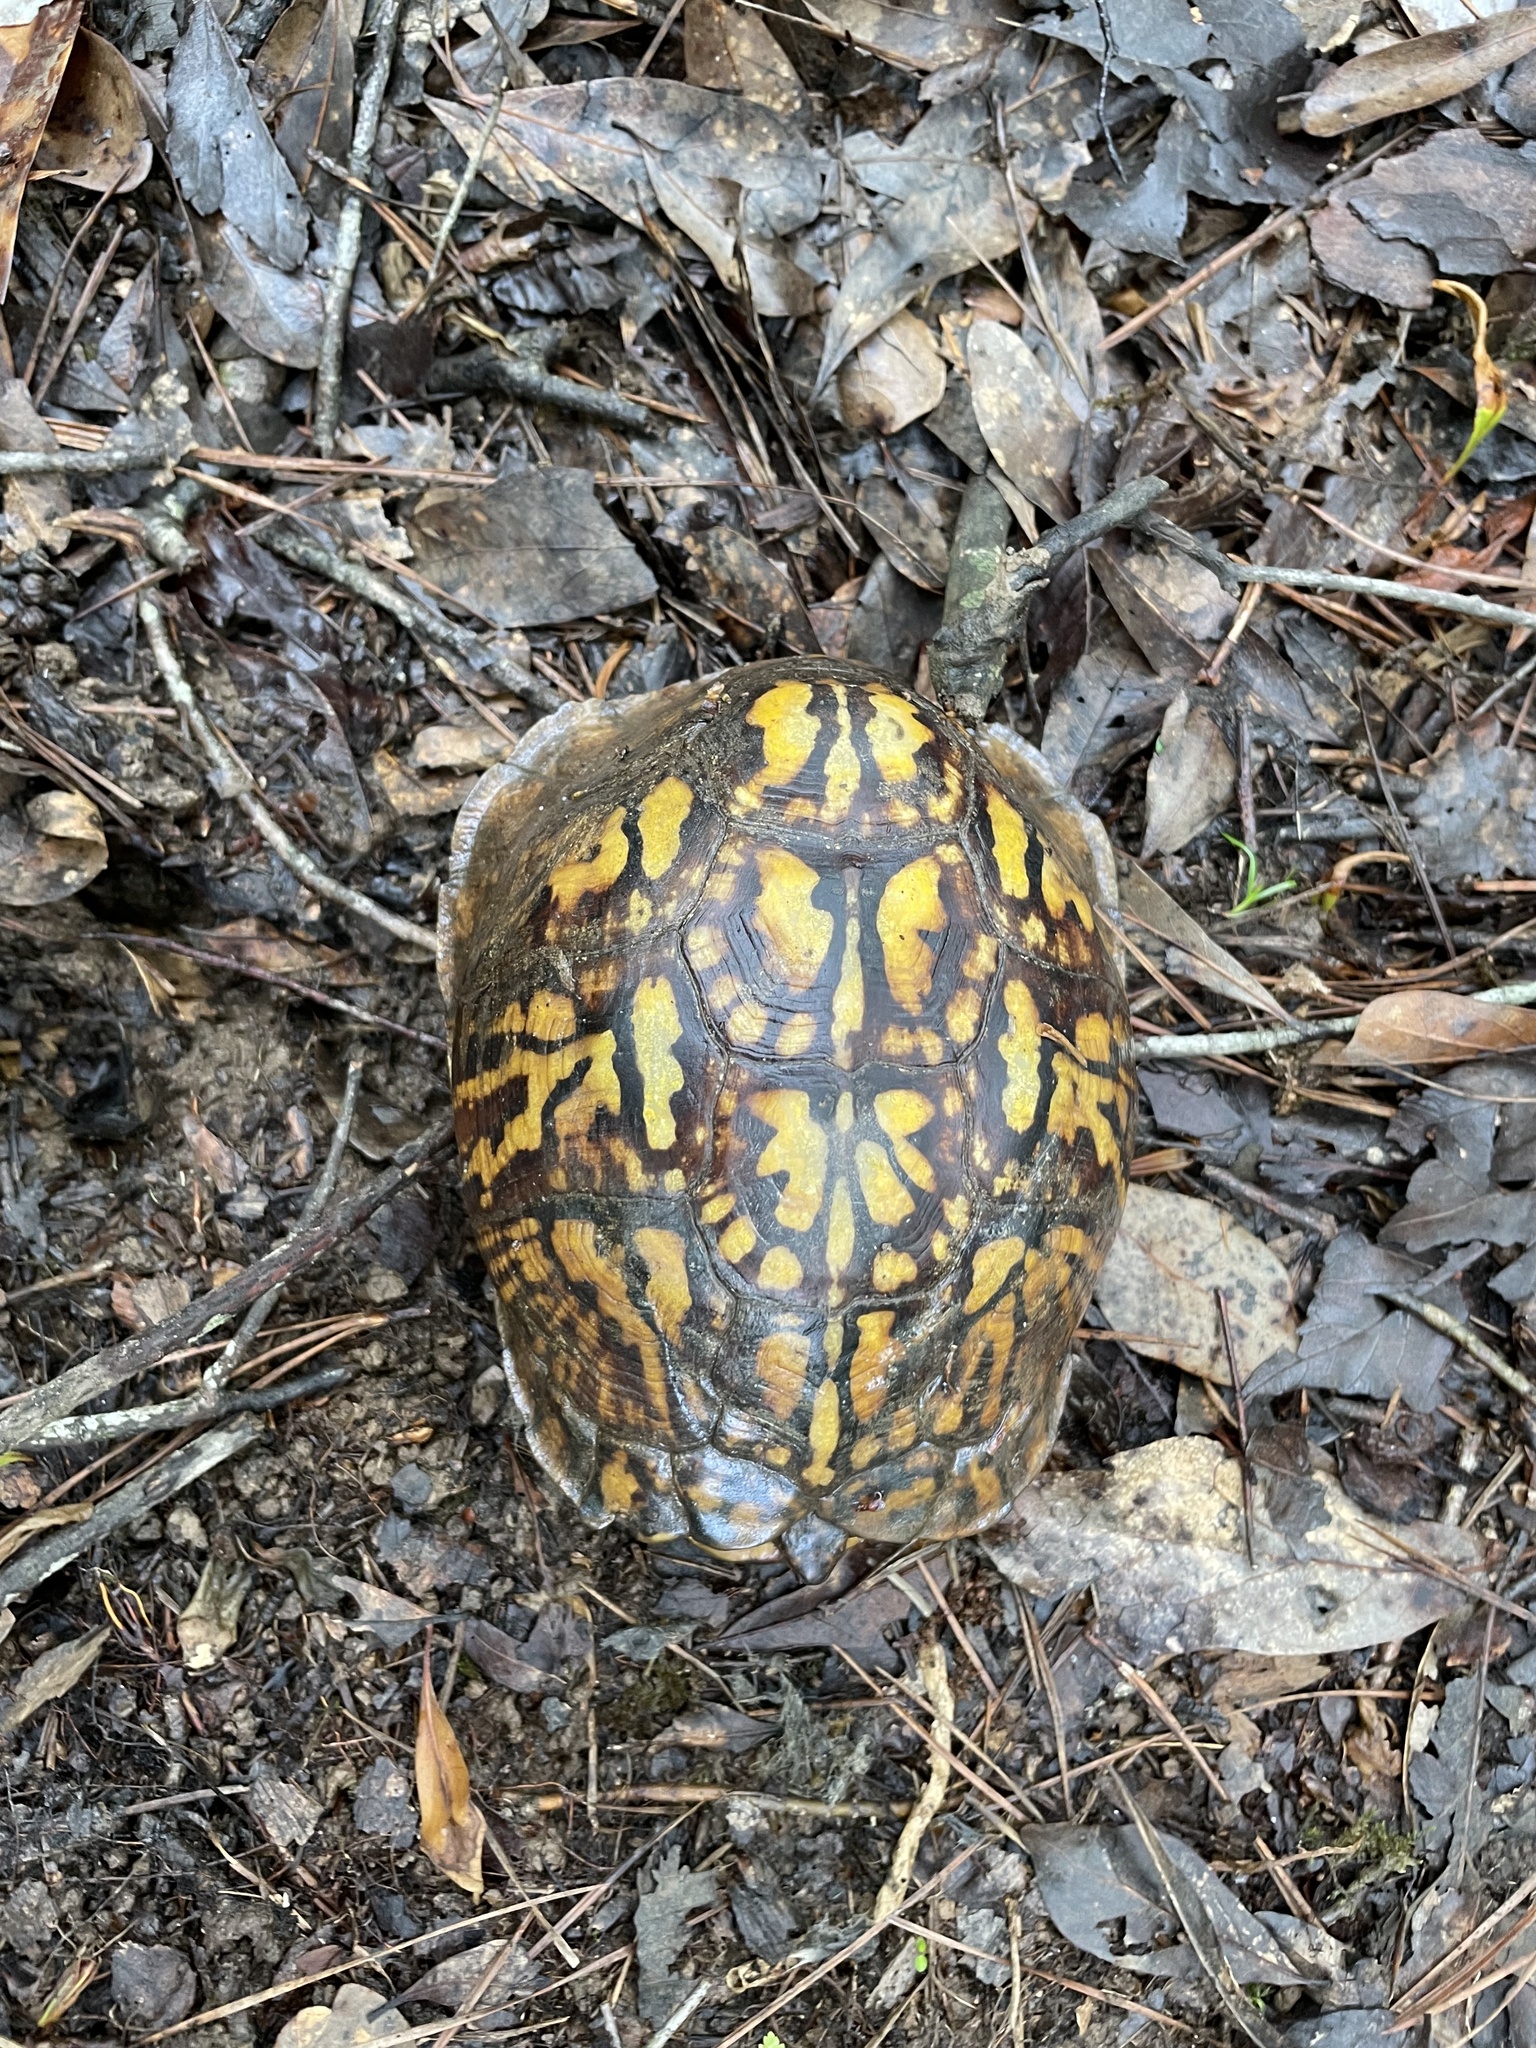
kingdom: Animalia
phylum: Chordata
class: Testudines
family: Emydidae
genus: Terrapene
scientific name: Terrapene carolina
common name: Common box turtle
